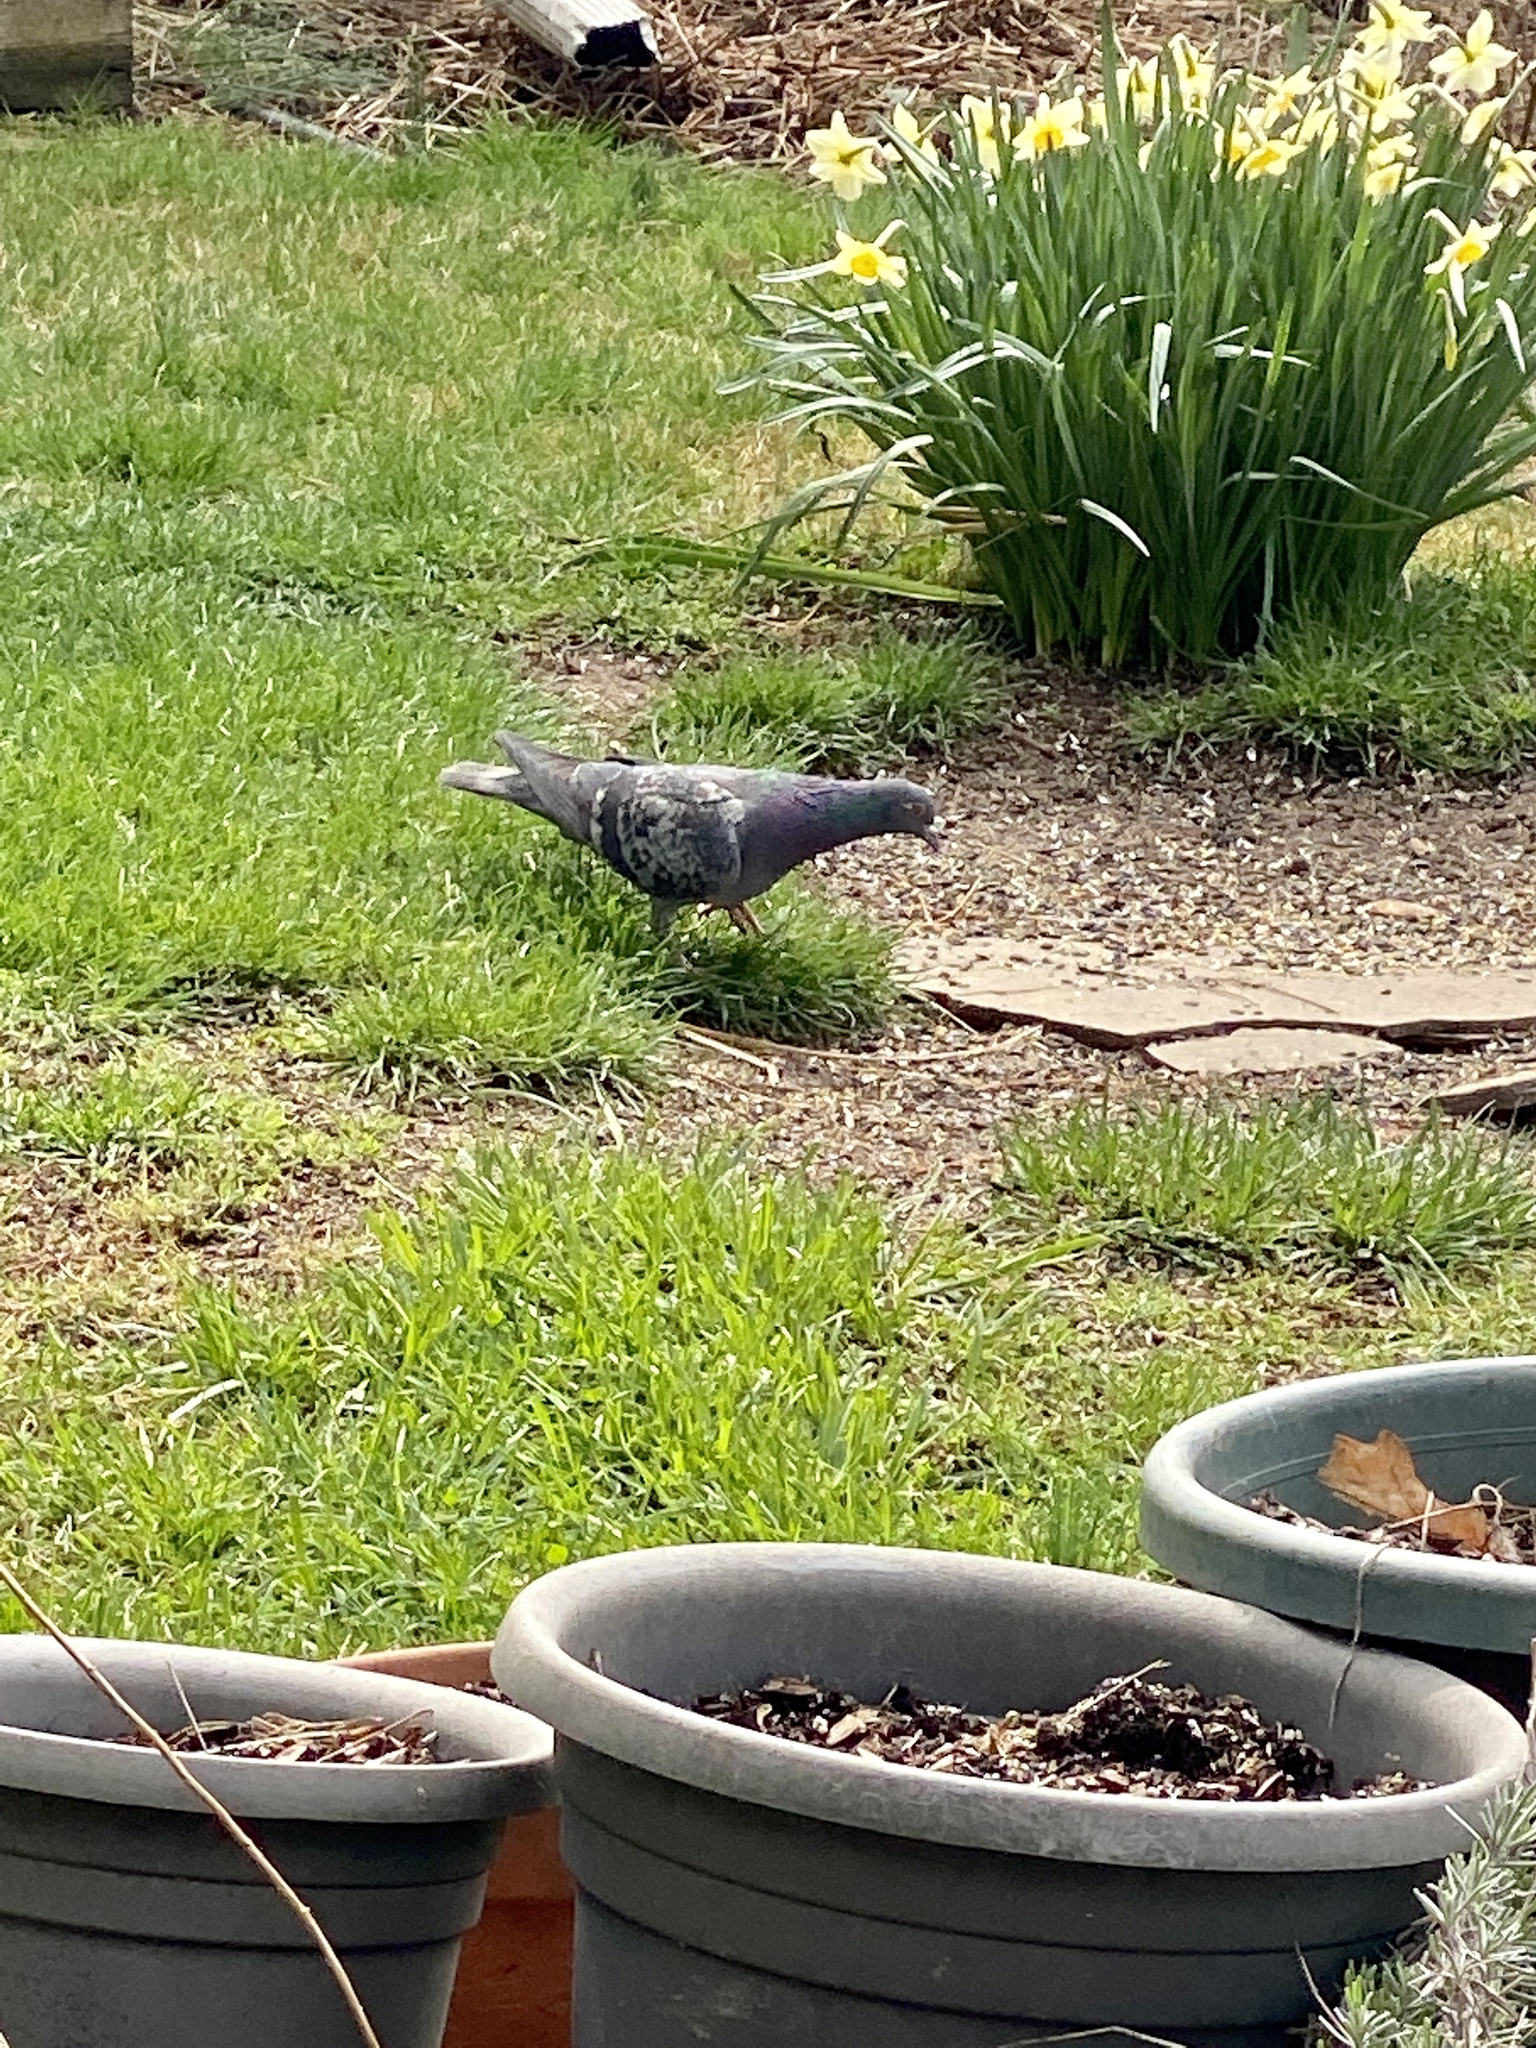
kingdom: Animalia
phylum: Chordata
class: Aves
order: Columbiformes
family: Columbidae
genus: Columba
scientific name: Columba livia
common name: Rock pigeon
